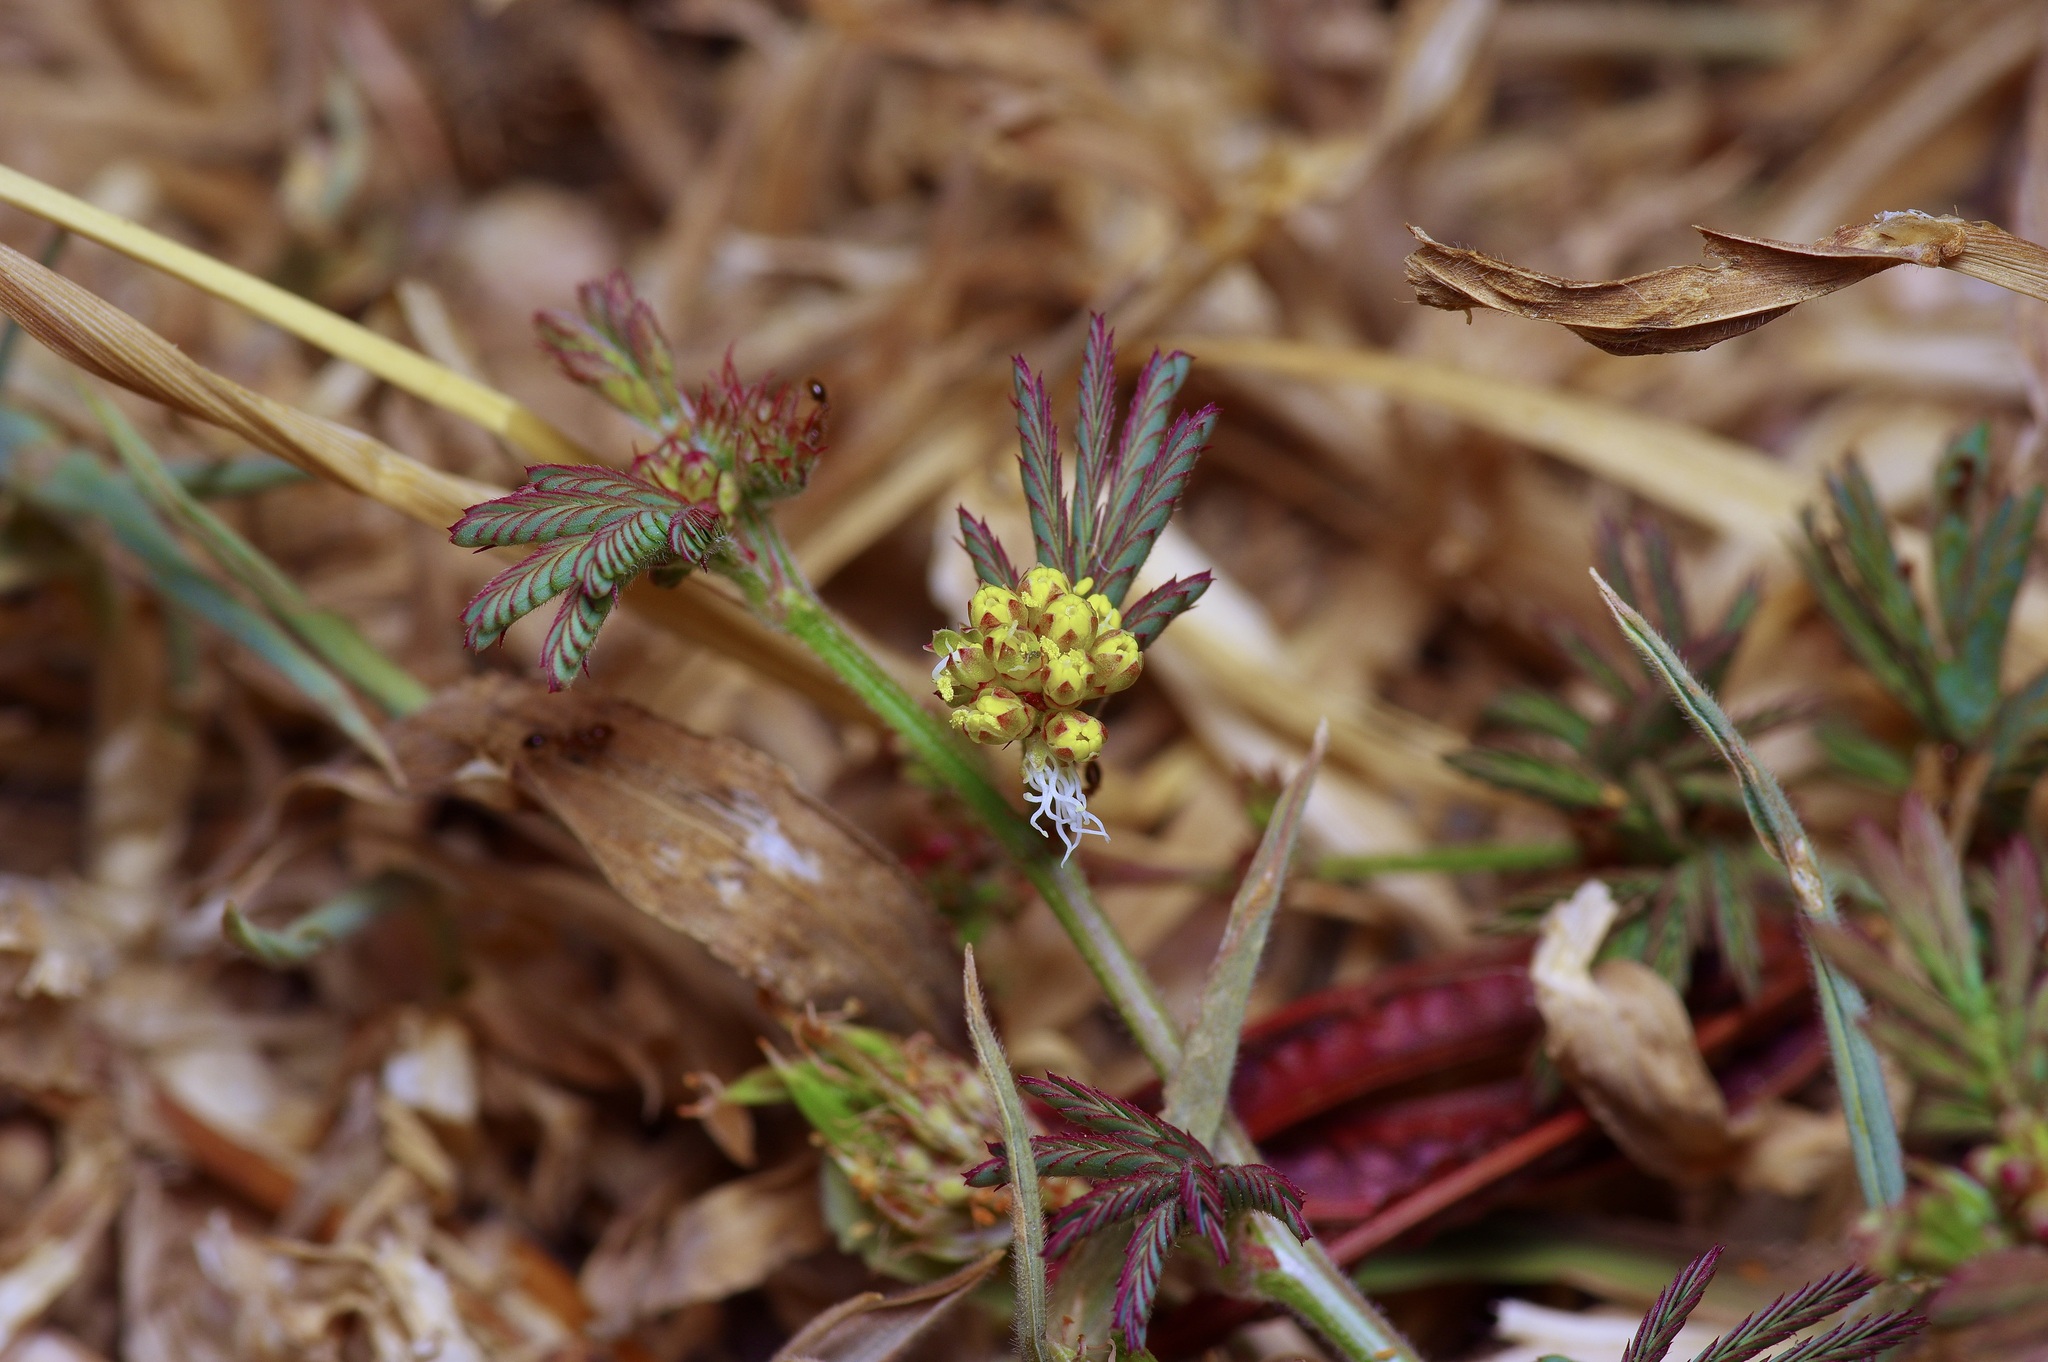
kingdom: Plantae
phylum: Tracheophyta
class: Magnoliopsida
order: Fabales
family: Fabaceae
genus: Neptunia
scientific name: Neptunia pubescens
